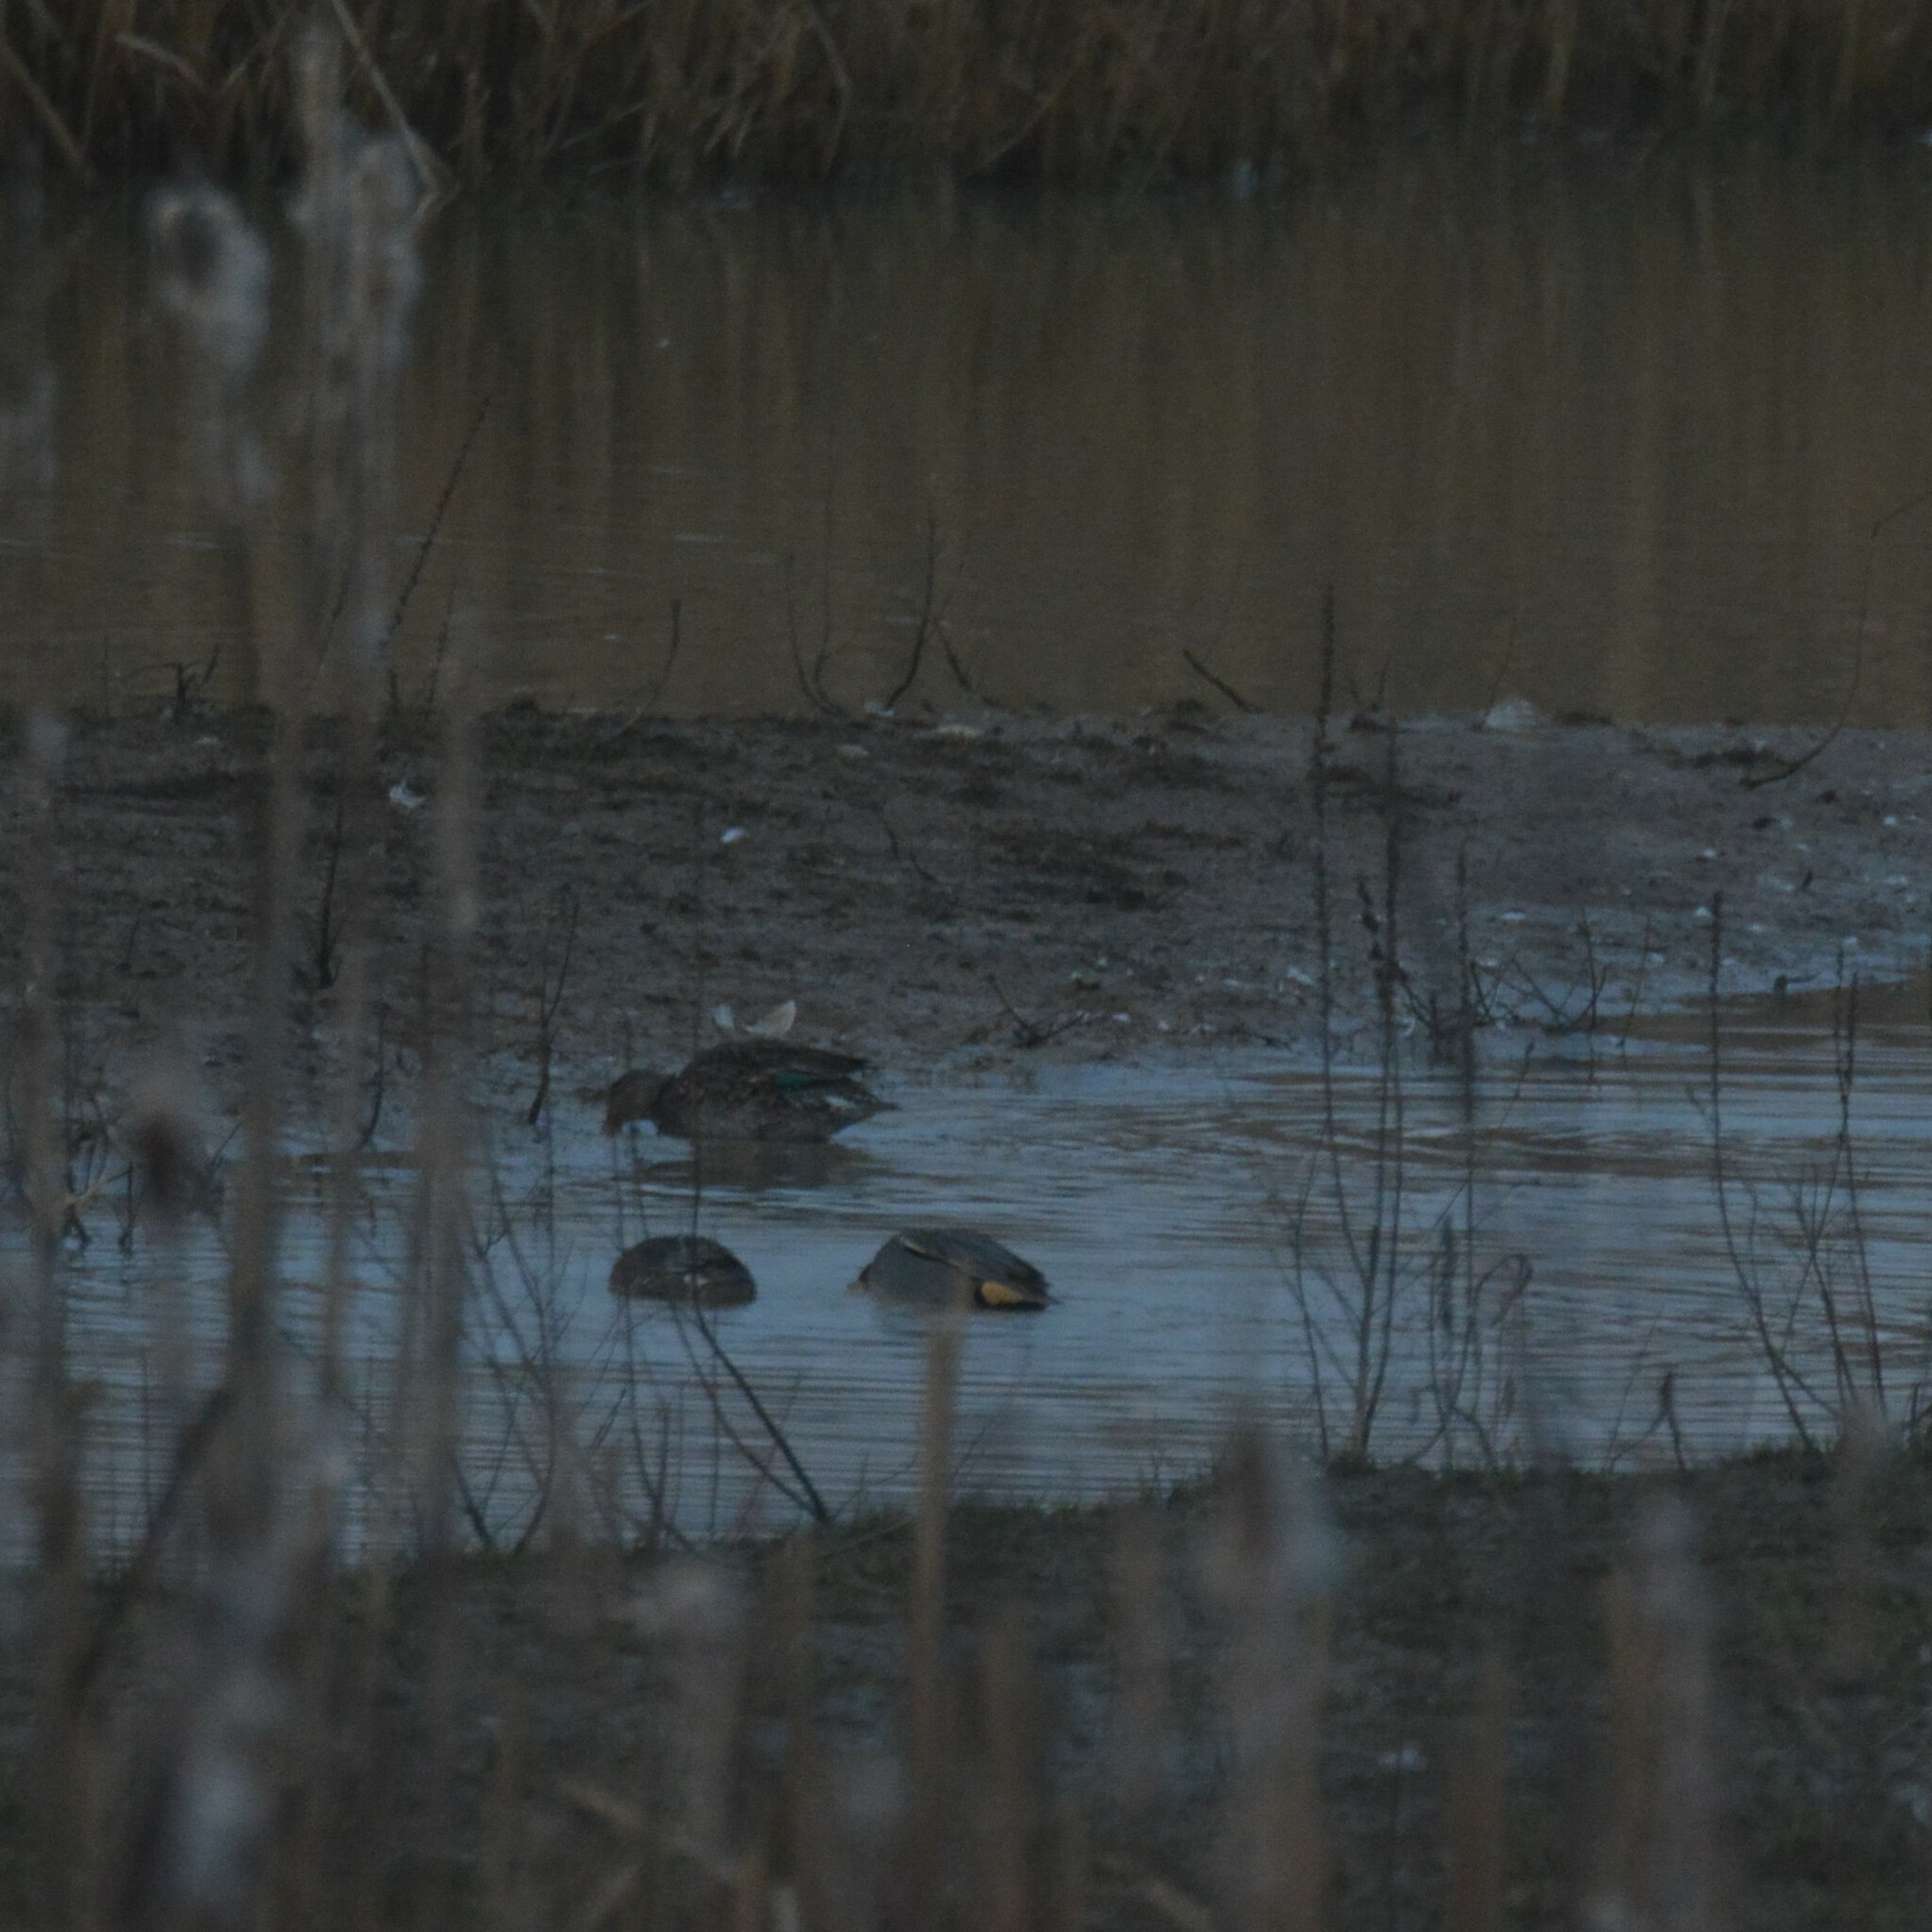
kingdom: Animalia
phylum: Chordata
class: Aves
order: Anseriformes
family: Anatidae
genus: Anas
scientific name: Anas crecca
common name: Eurasian teal
